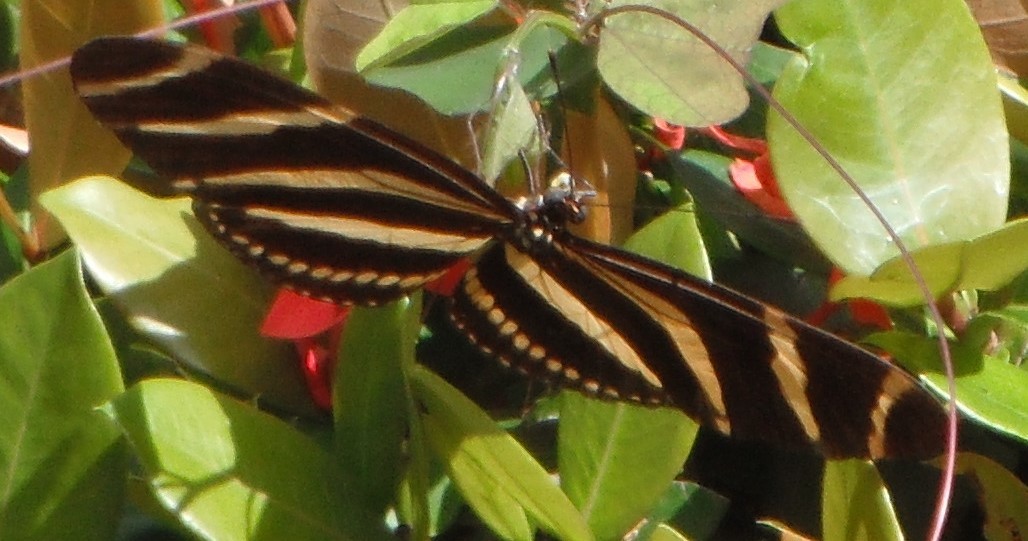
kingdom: Animalia
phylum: Arthropoda
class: Insecta
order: Lepidoptera
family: Nymphalidae
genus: Heliconius
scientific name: Heliconius charithonia
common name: Zebra long wing
